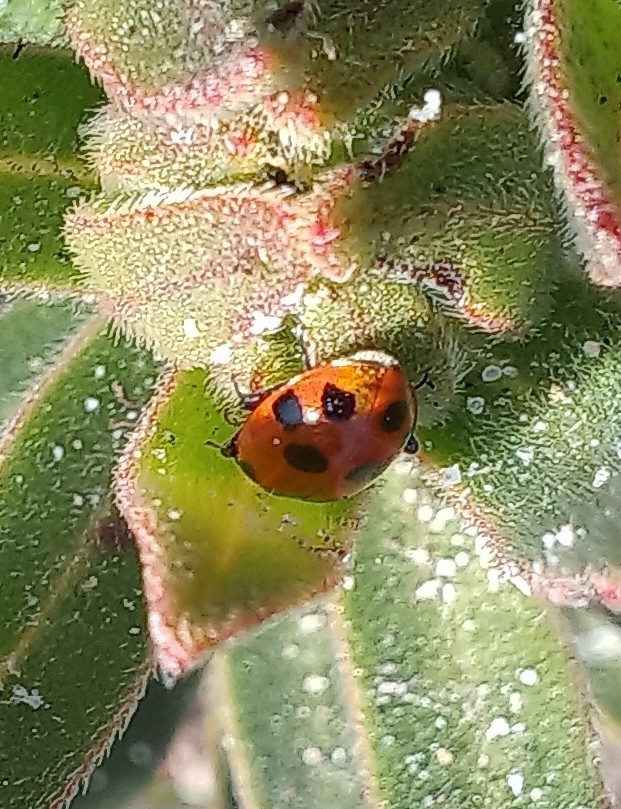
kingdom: Animalia
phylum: Arthropoda
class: Insecta
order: Coleoptera
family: Coccinellidae
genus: Hippodamia
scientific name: Hippodamia variegata
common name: Ladybird beetle
